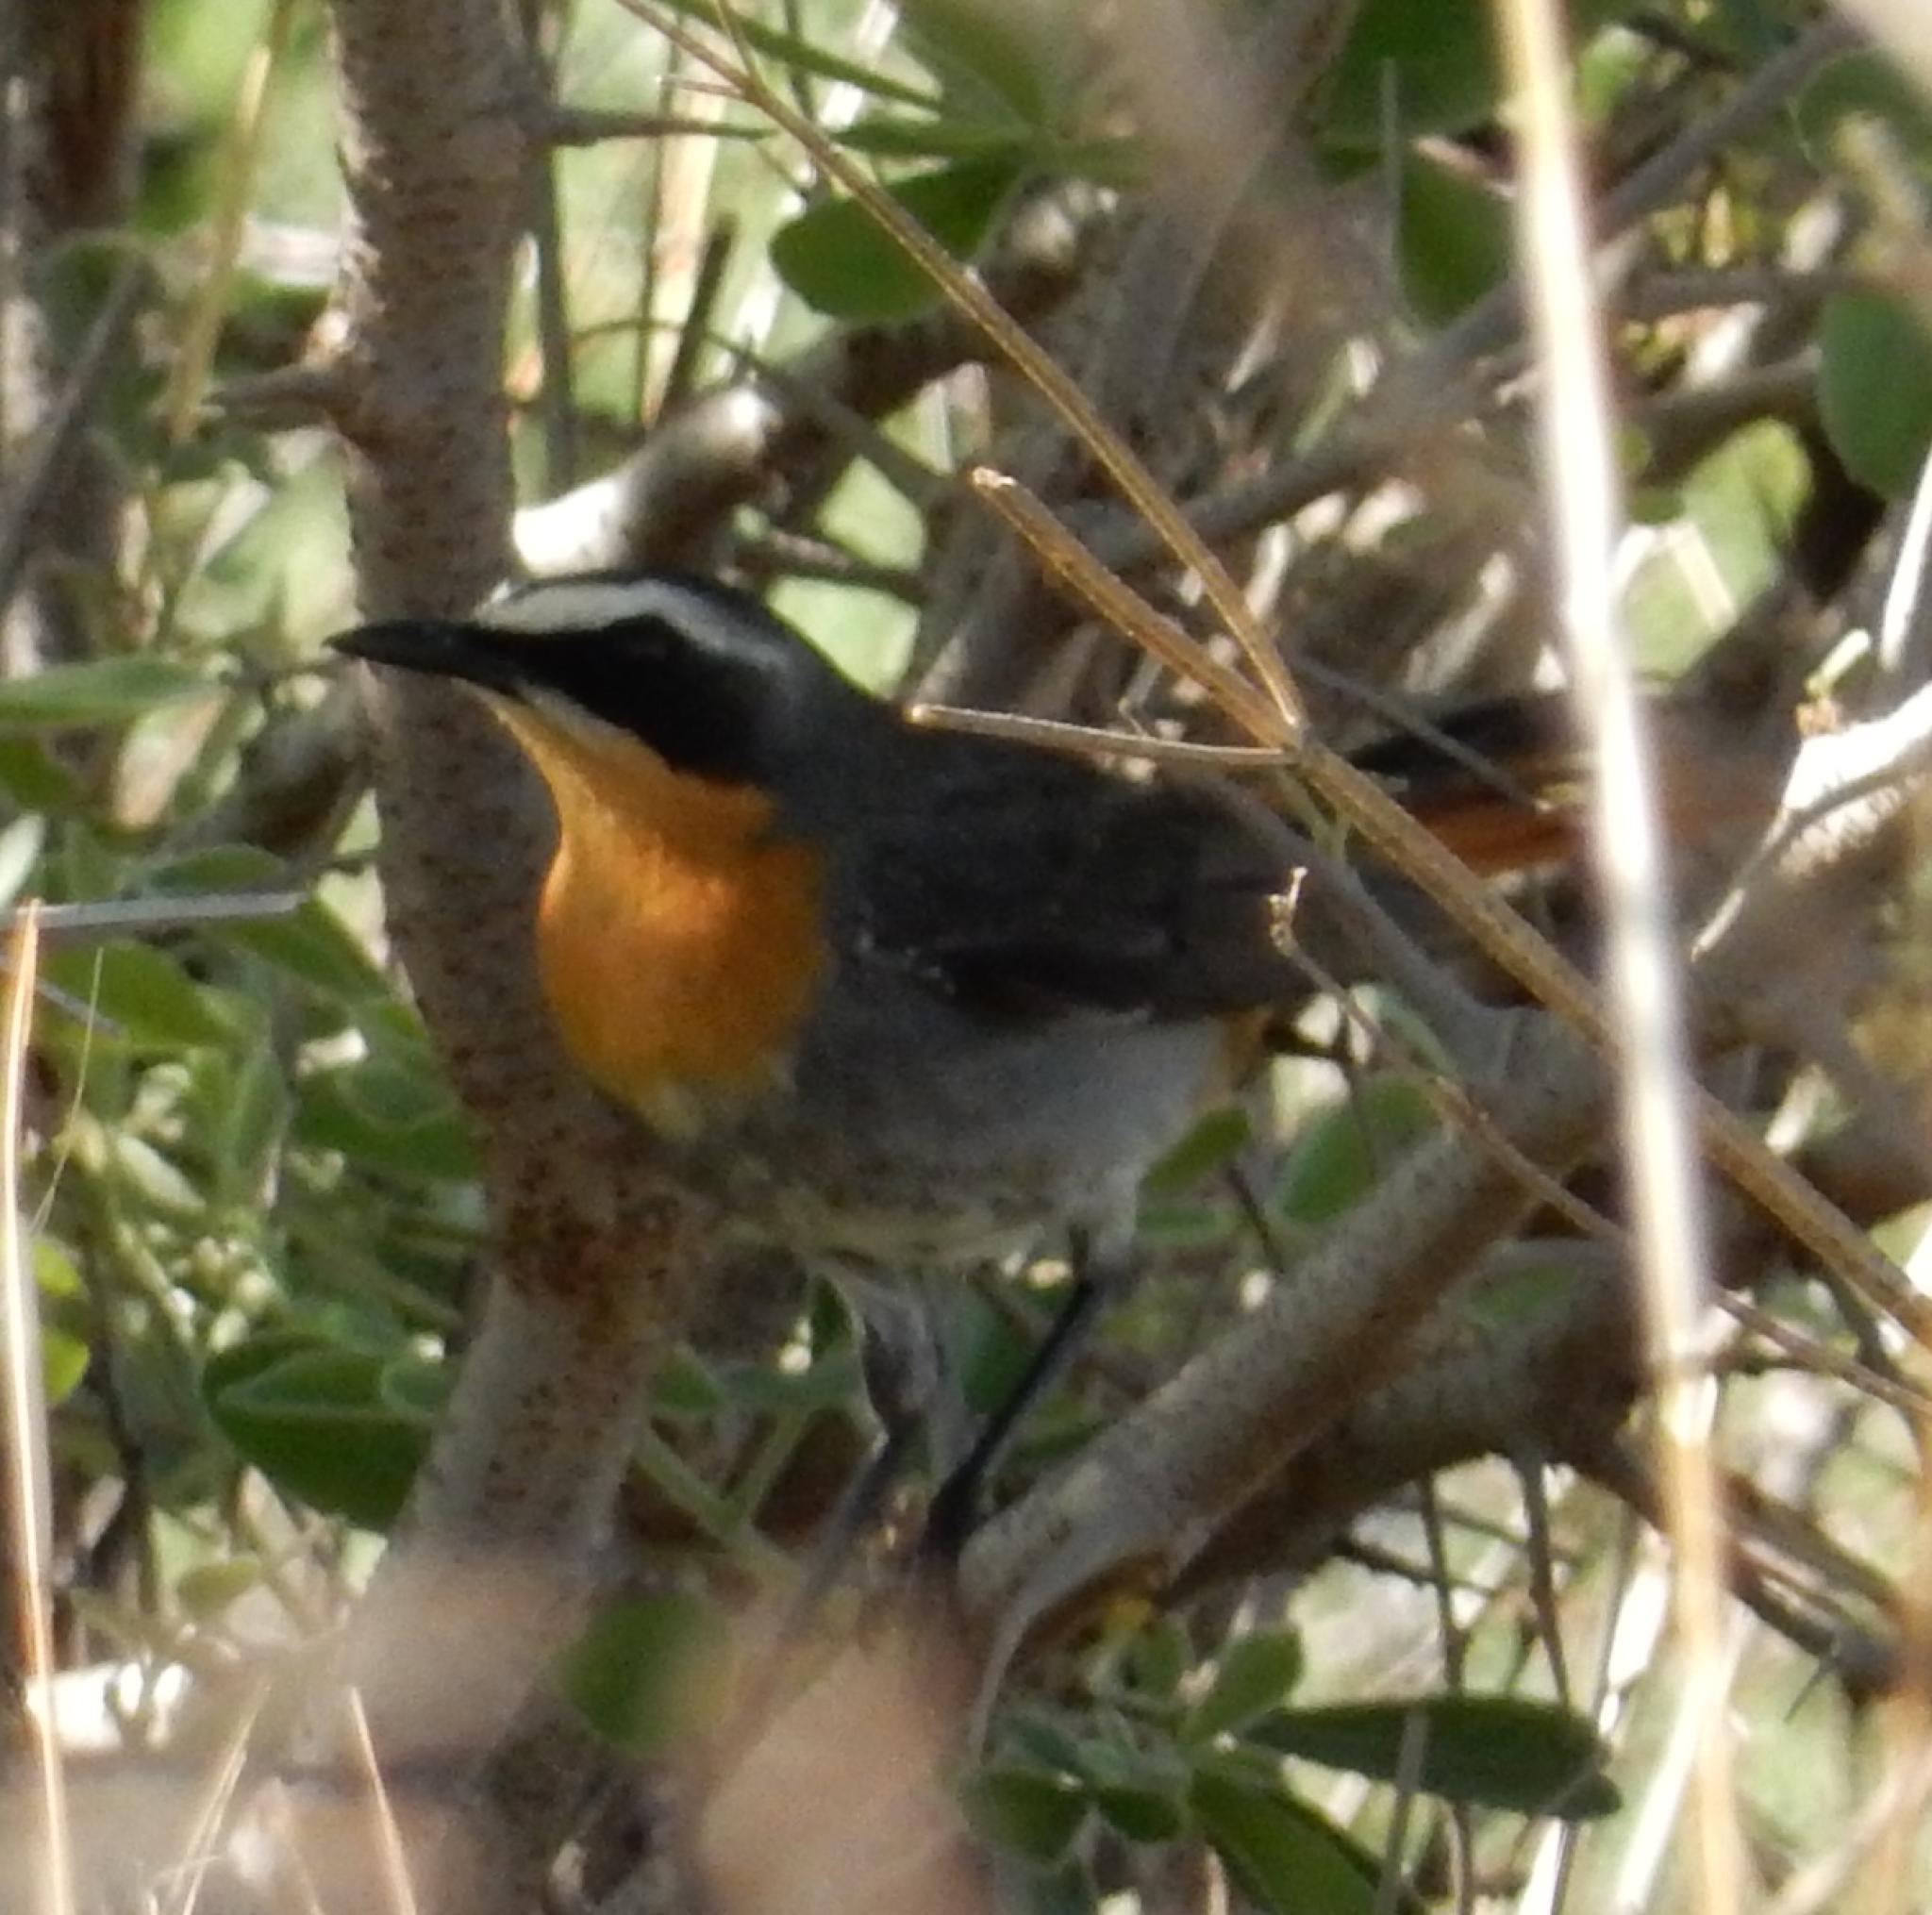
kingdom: Animalia
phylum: Chordata
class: Aves
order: Passeriformes
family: Muscicapidae
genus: Cossypha
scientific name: Cossypha caffra
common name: Cape robin-chat
